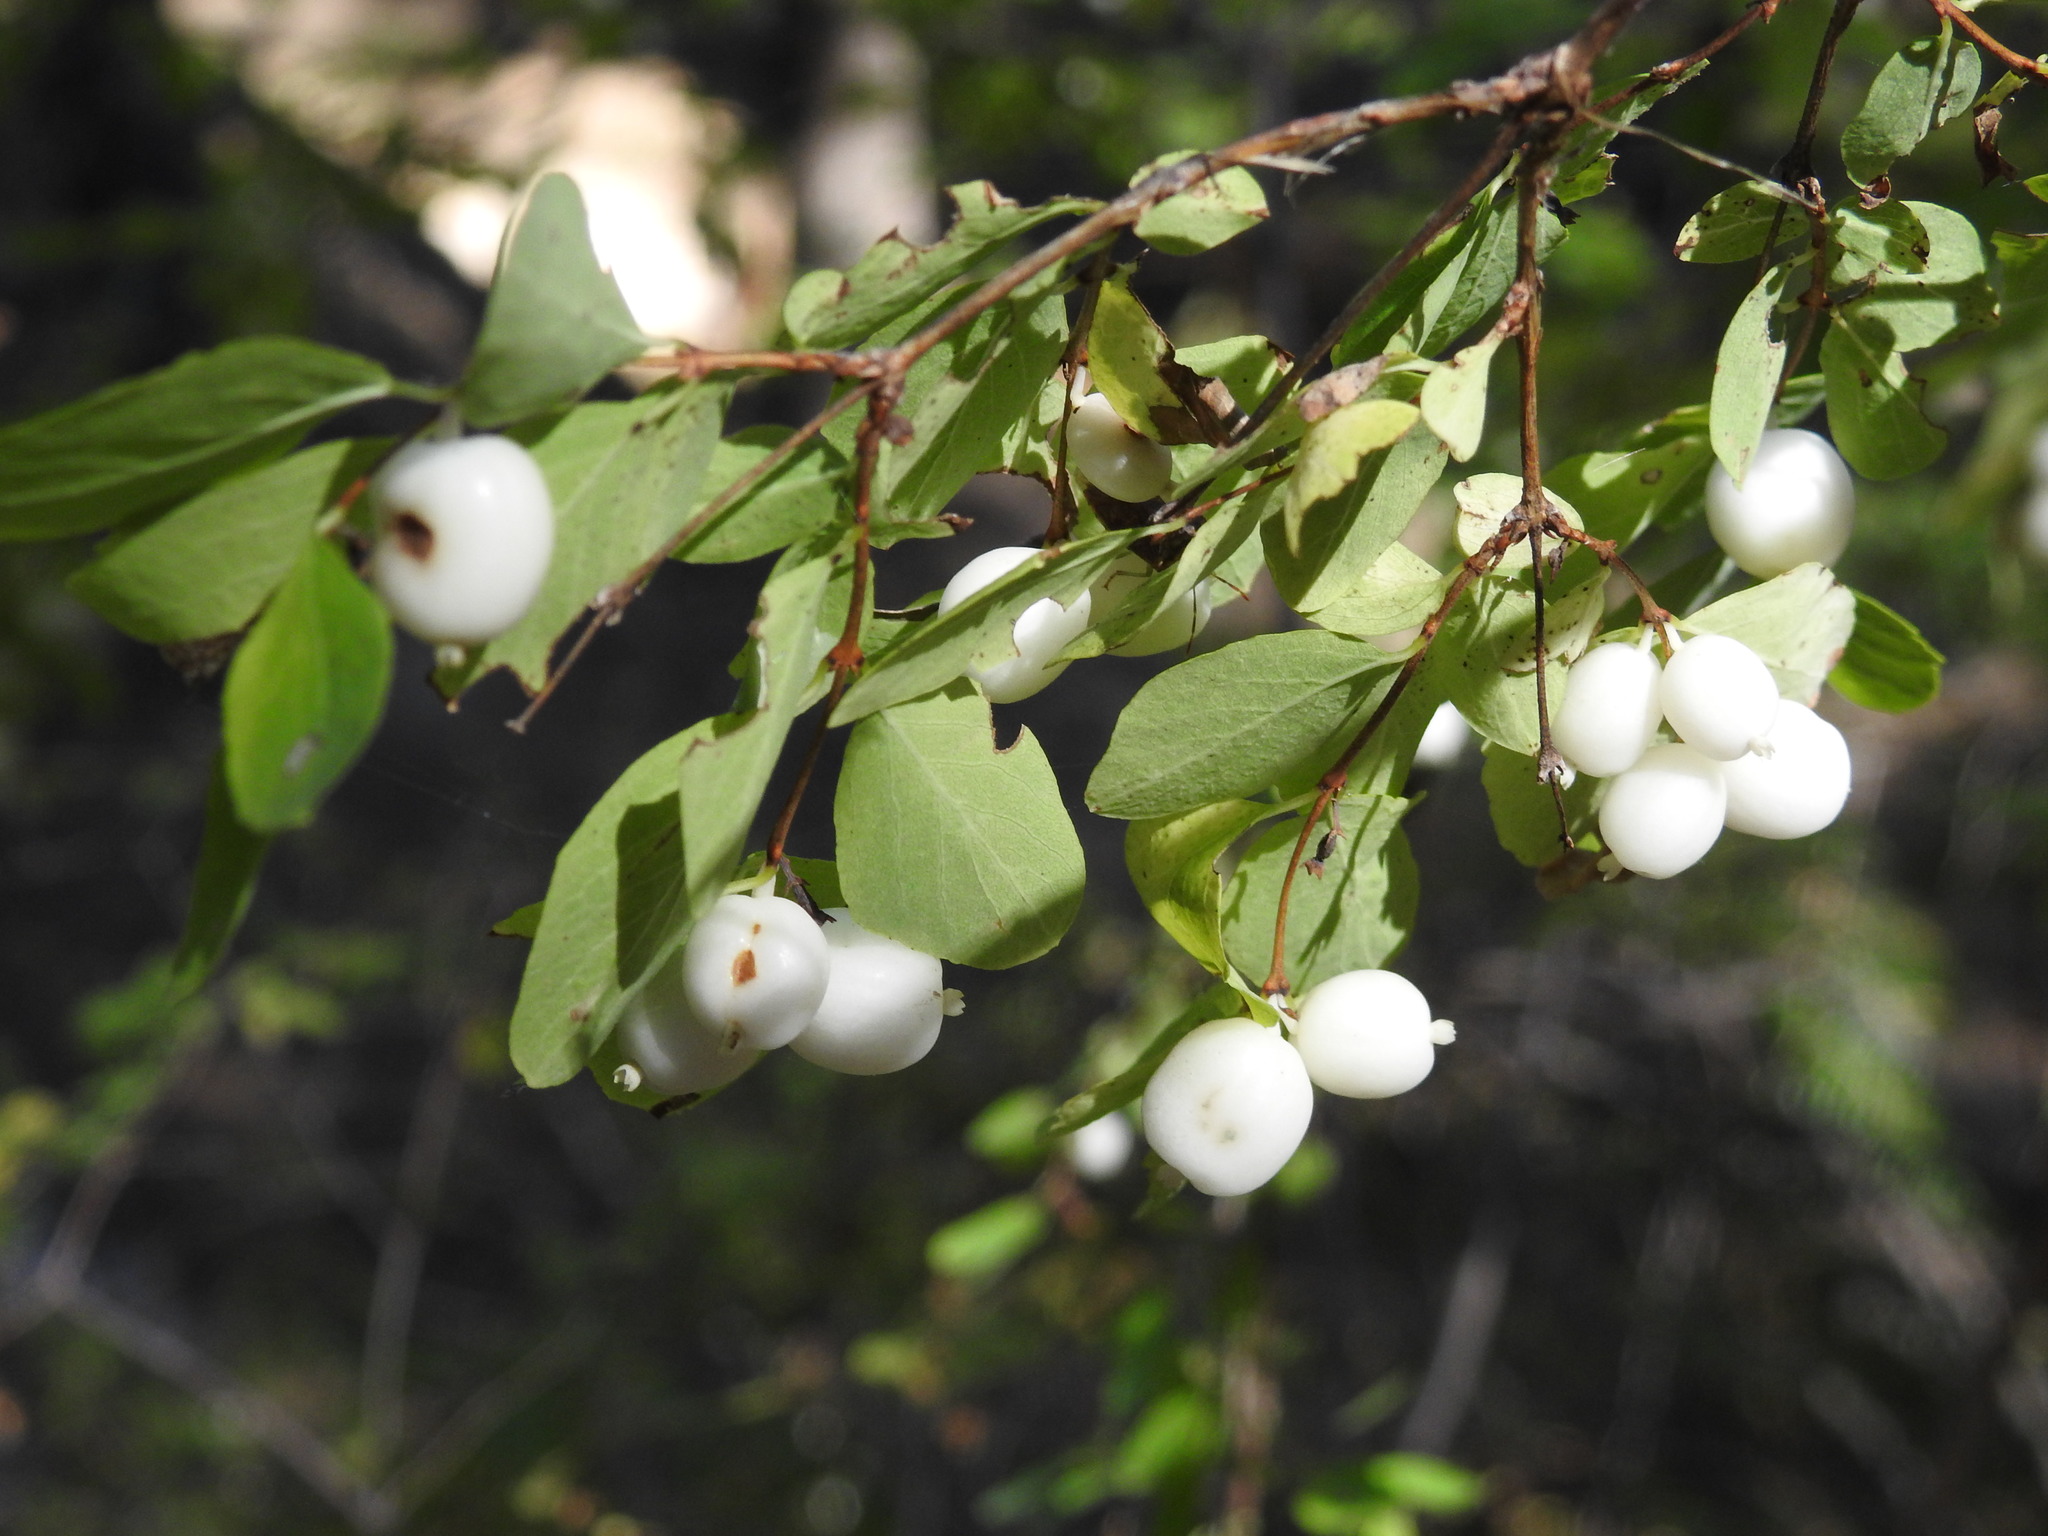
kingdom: Plantae
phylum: Tracheophyta
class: Magnoliopsida
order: Dipsacales
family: Caprifoliaceae
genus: Symphoricarpos
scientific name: Symphoricarpos rotundifolius
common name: Round-leaved snowberry
